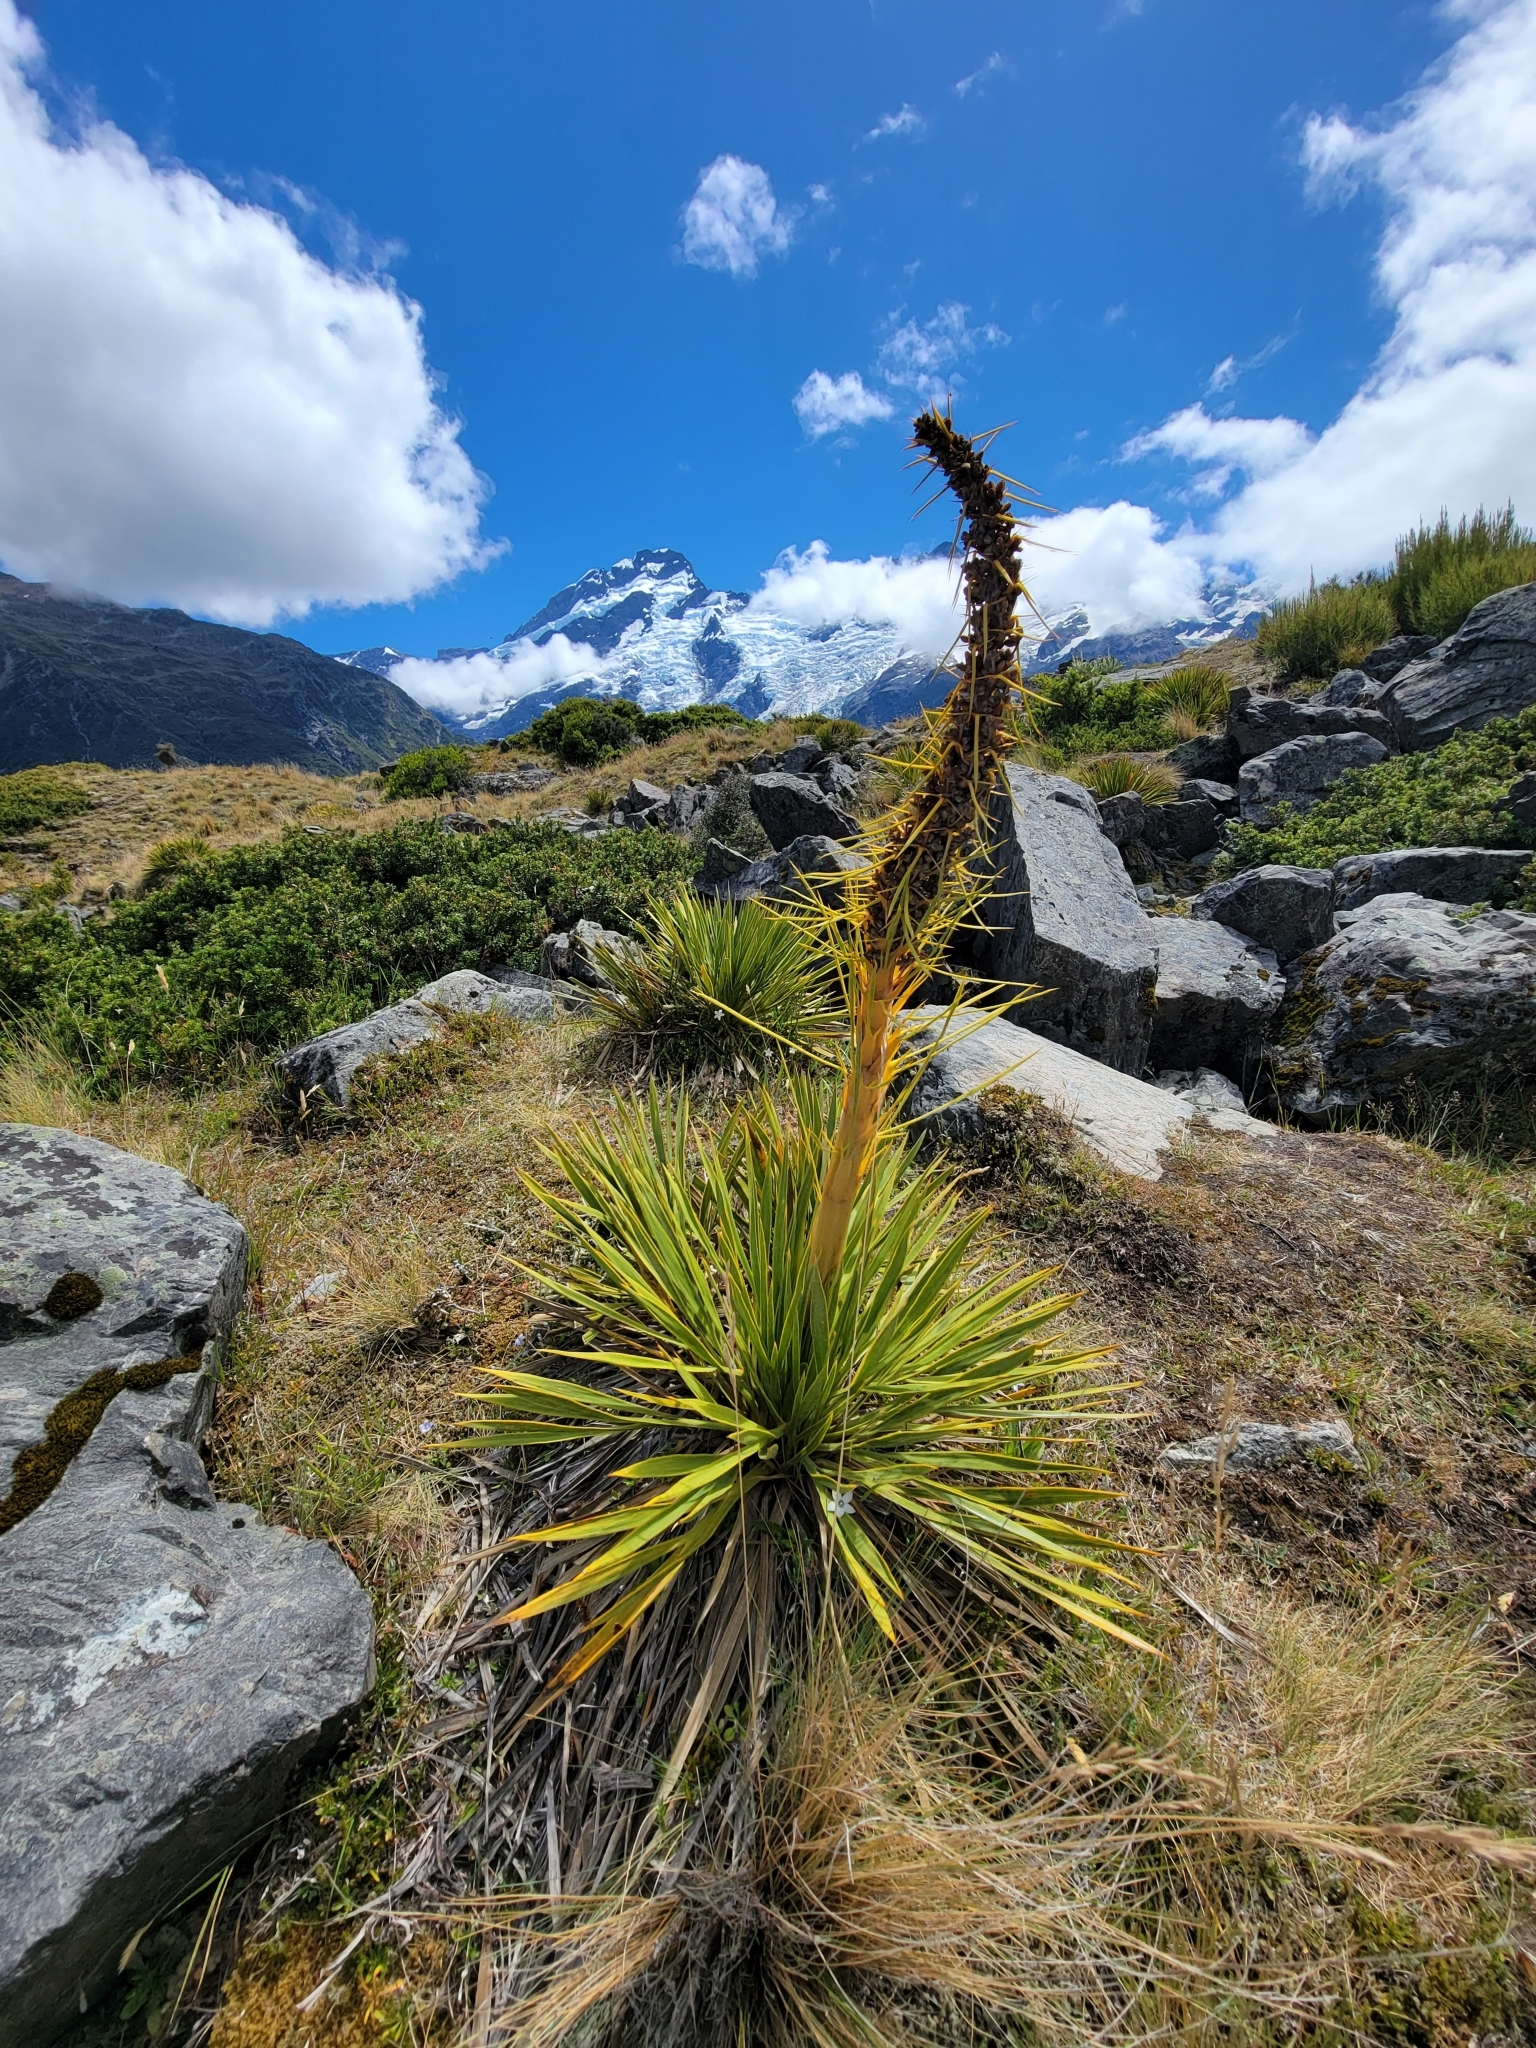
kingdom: Plantae
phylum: Tracheophyta
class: Magnoliopsida
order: Apiales
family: Apiaceae
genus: Aciphylla
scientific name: Aciphylla aurea
